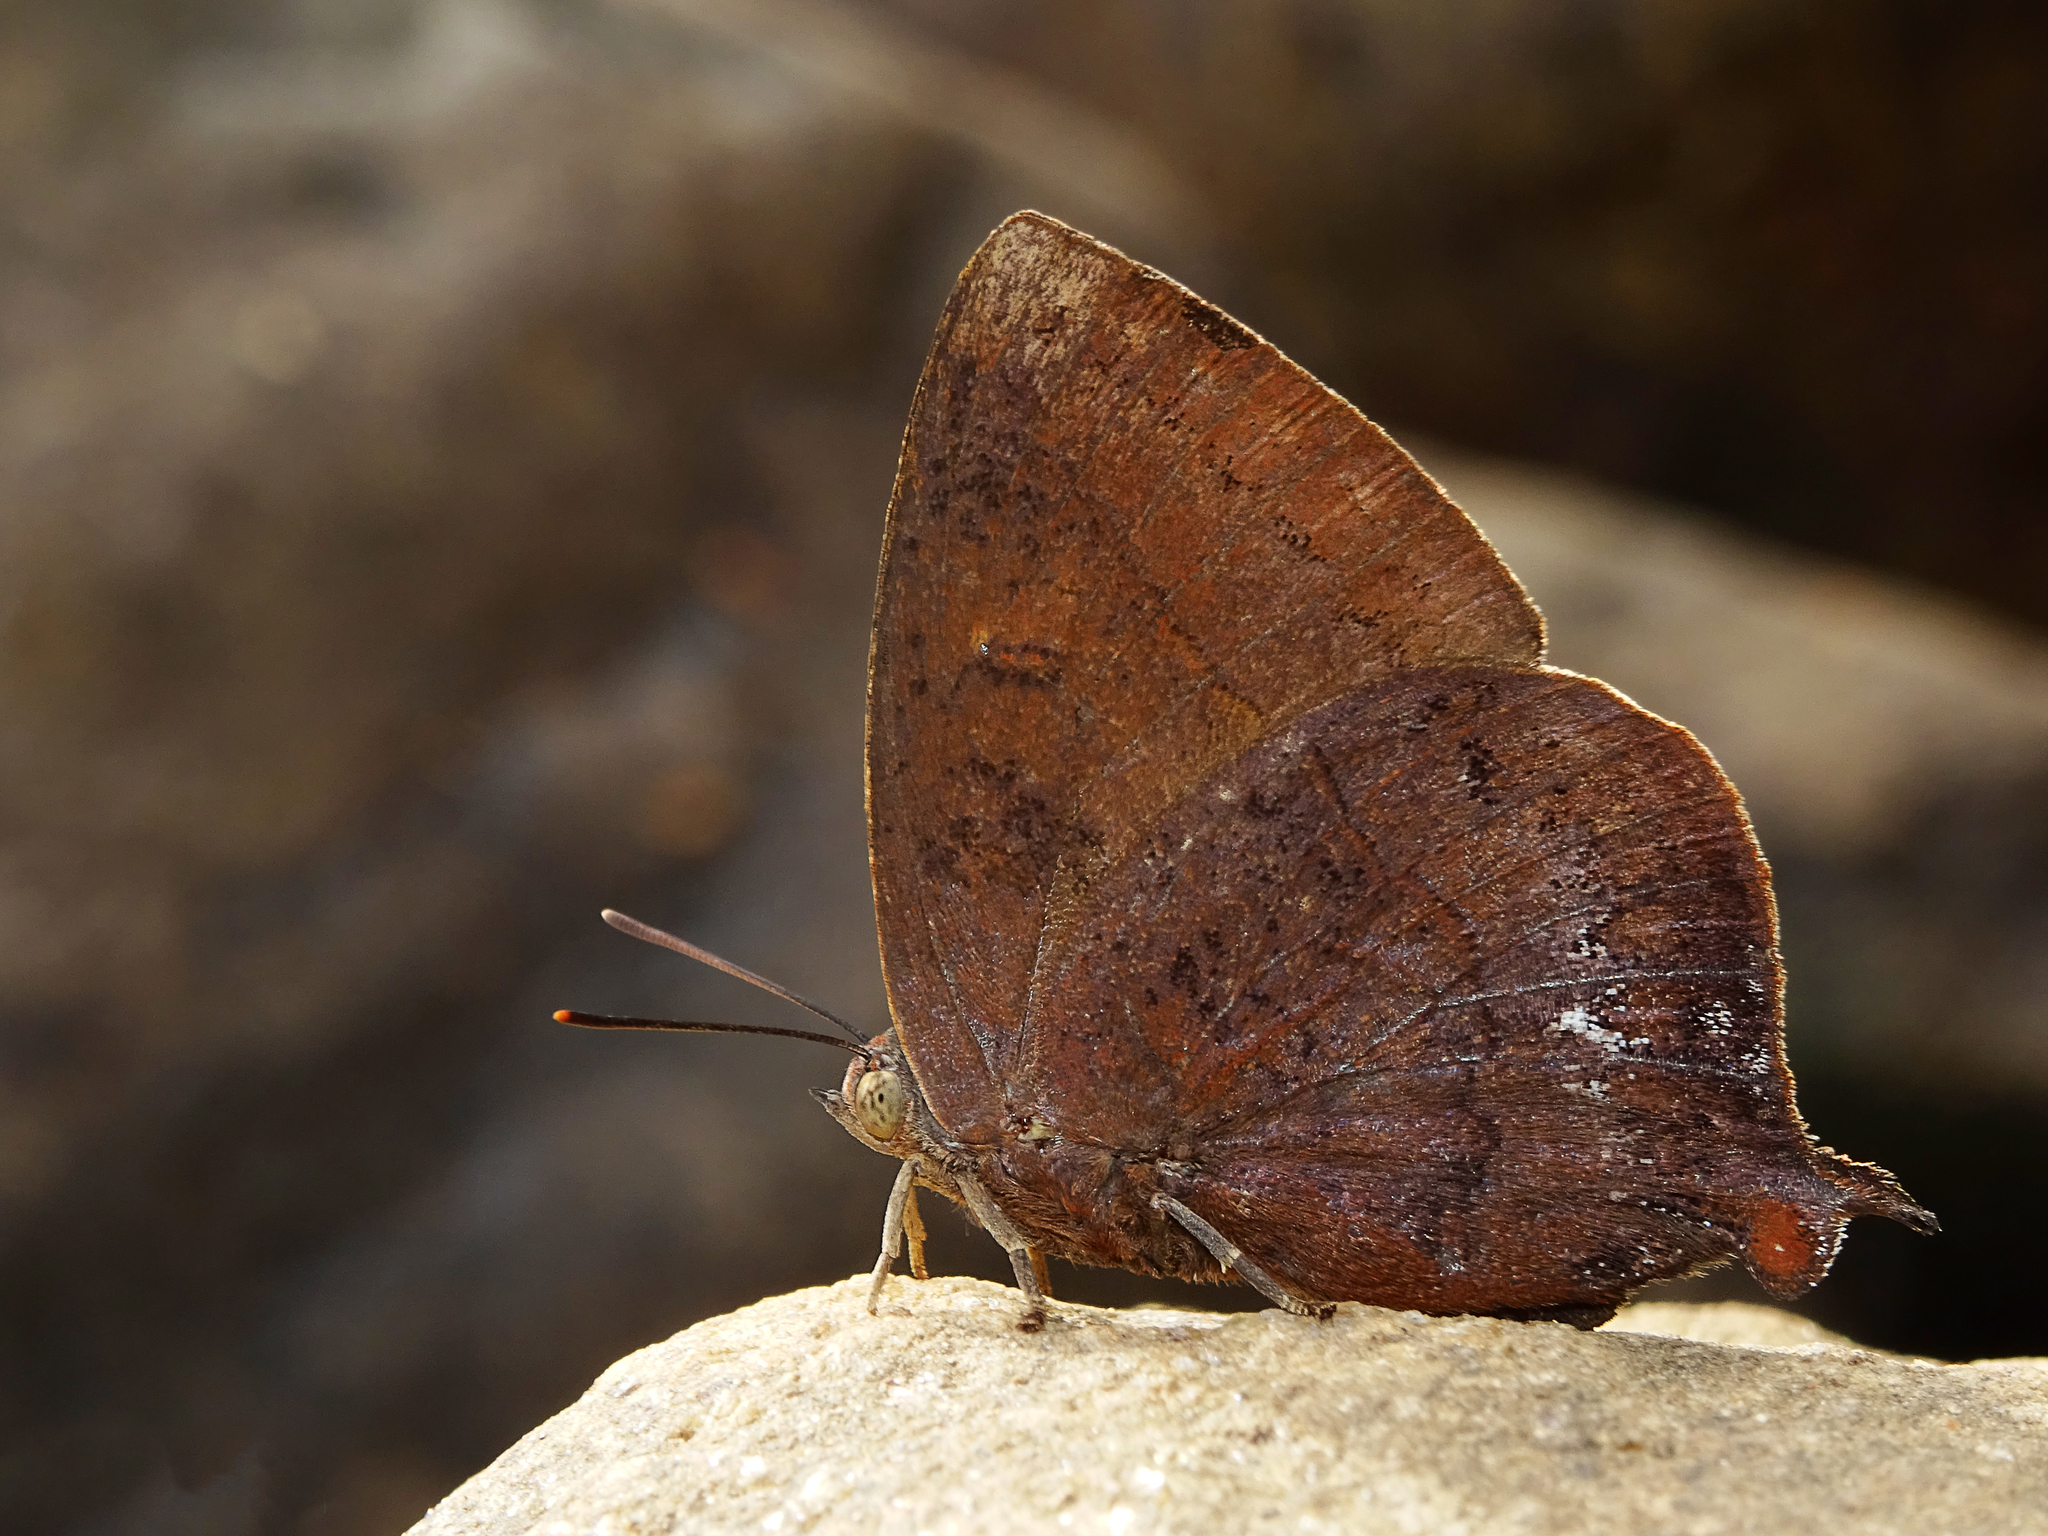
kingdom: Animalia
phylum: Arthropoda
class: Insecta
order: Lepidoptera
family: Lycaenidae
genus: Amblypodia
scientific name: Amblypodia anita
